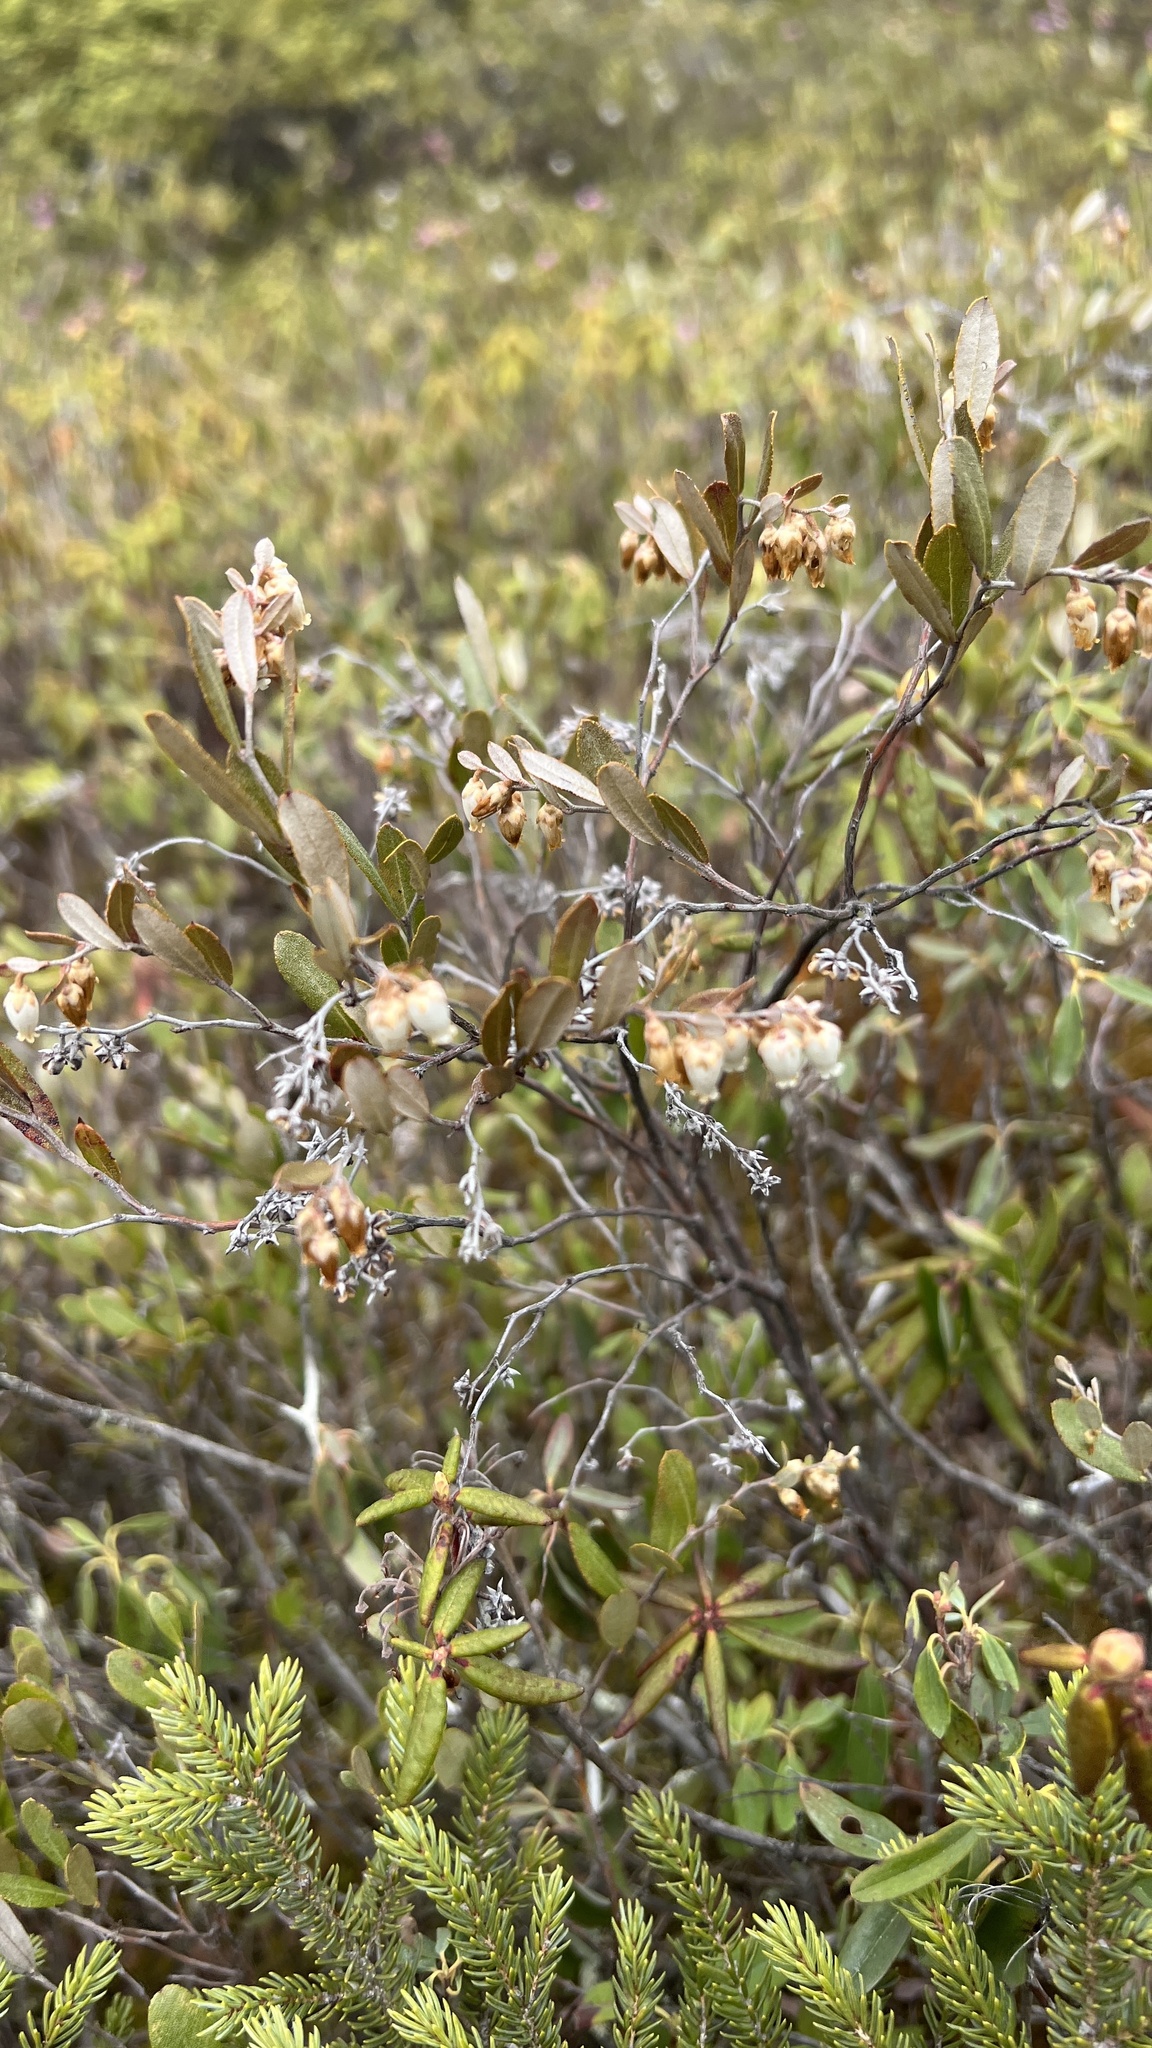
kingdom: Plantae
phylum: Tracheophyta
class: Magnoliopsida
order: Ericales
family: Ericaceae
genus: Chamaedaphne
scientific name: Chamaedaphne calyculata
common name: Leatherleaf
